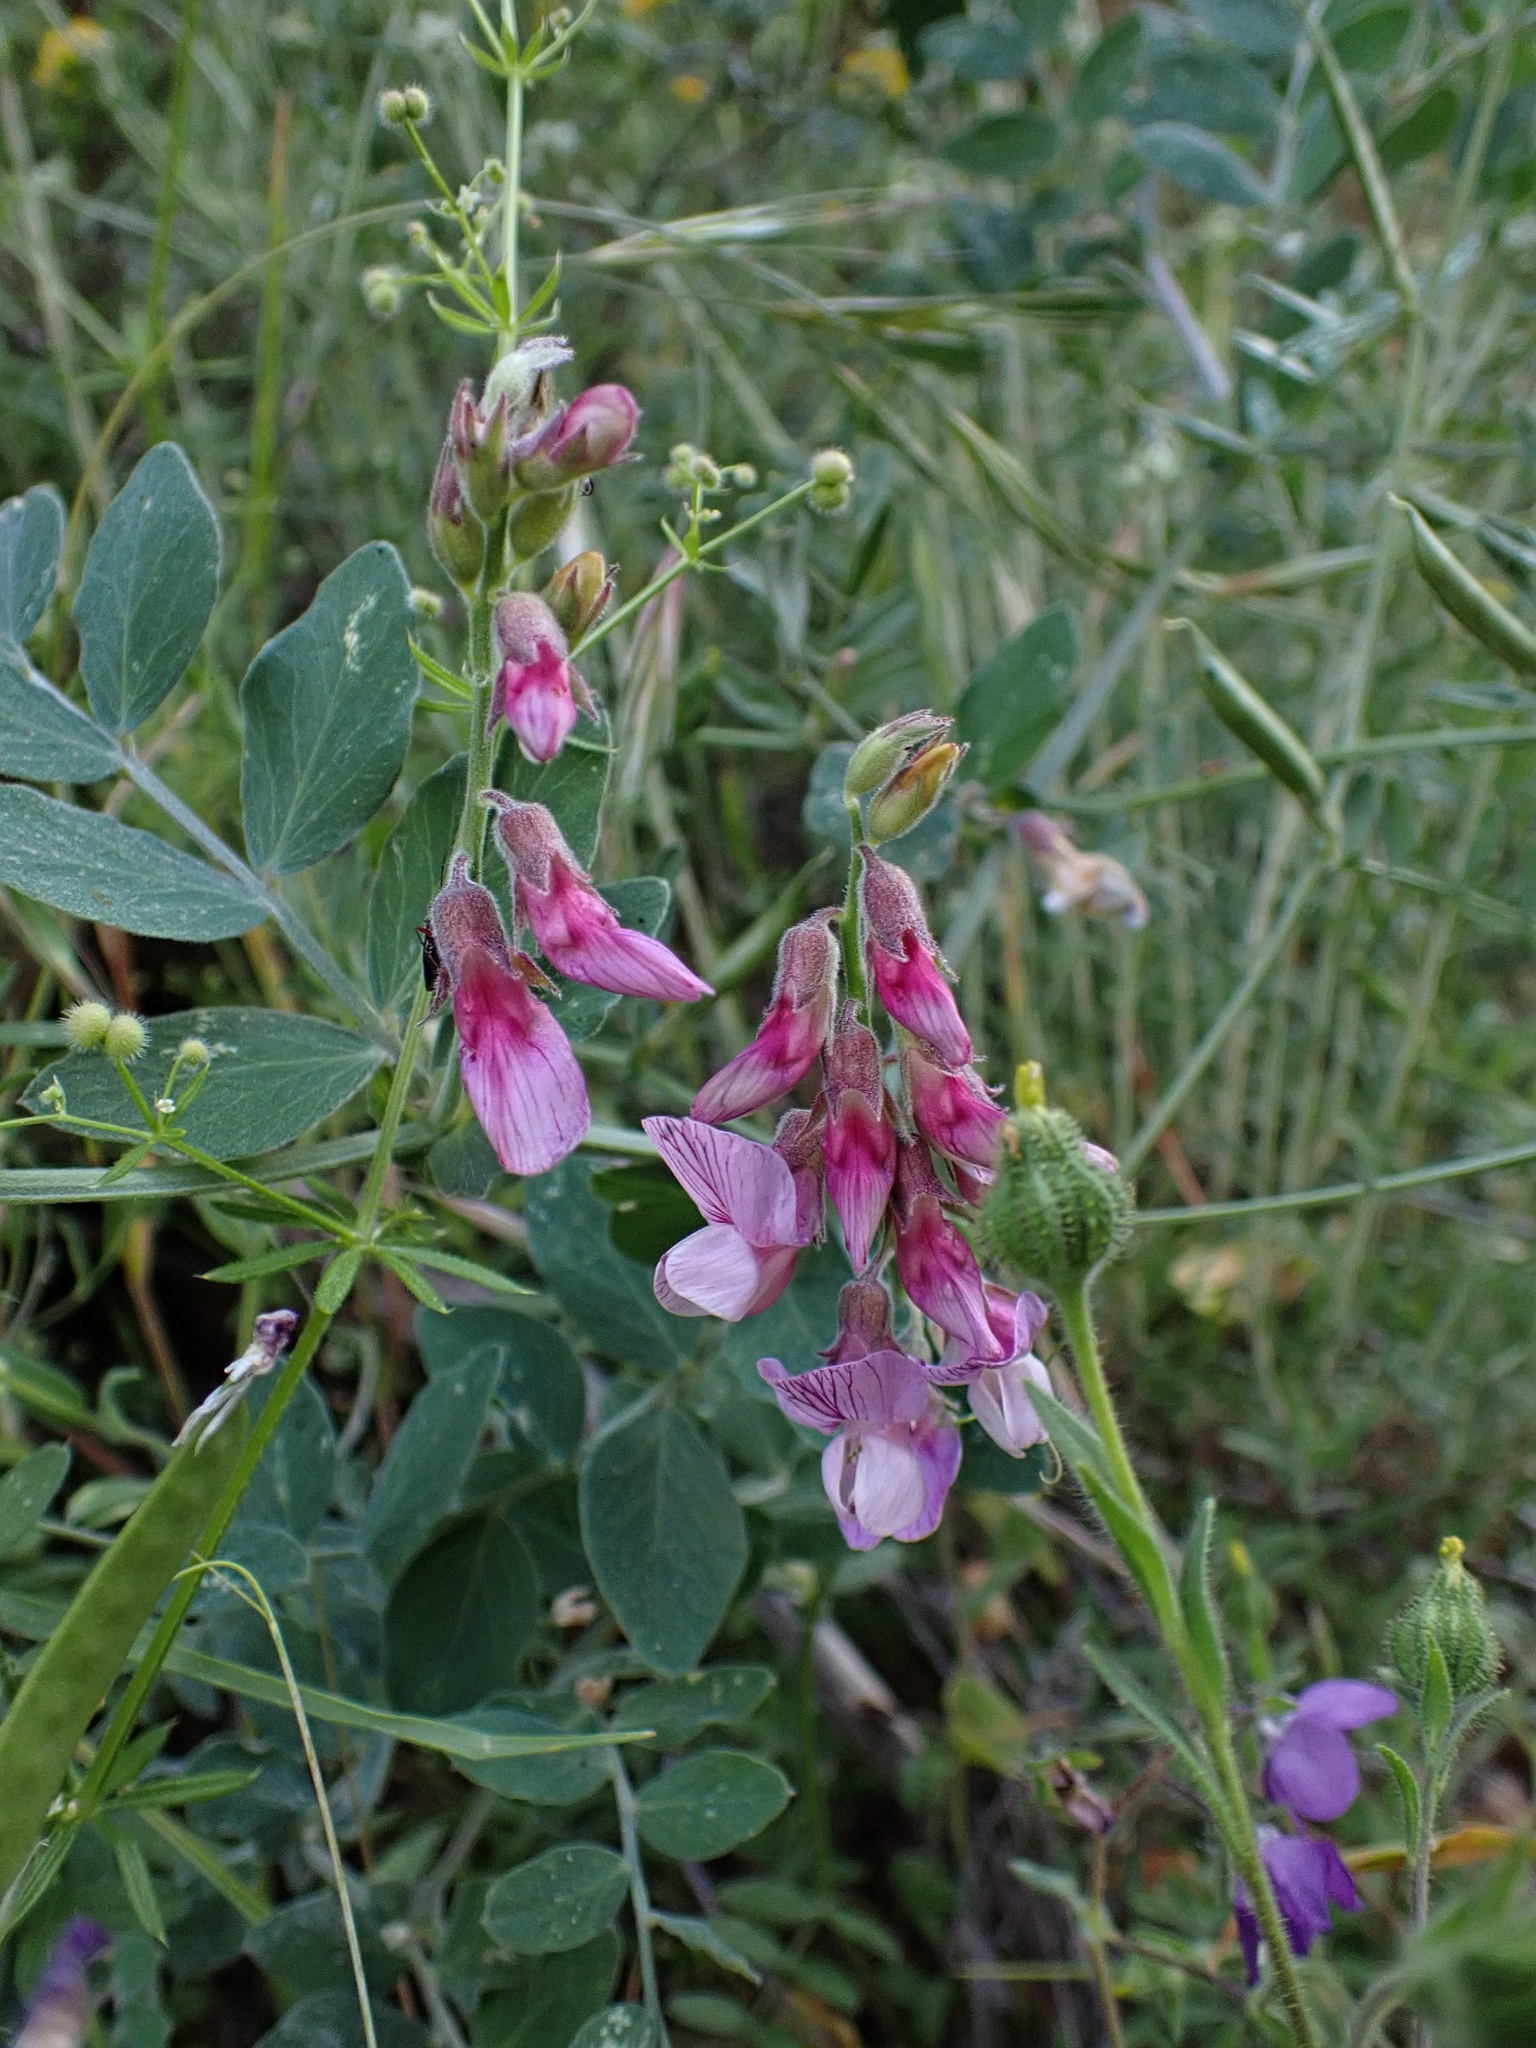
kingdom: Plantae
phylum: Tracheophyta
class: Magnoliopsida
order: Fabales
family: Fabaceae
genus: Lathyrus
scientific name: Lathyrus vestitus
